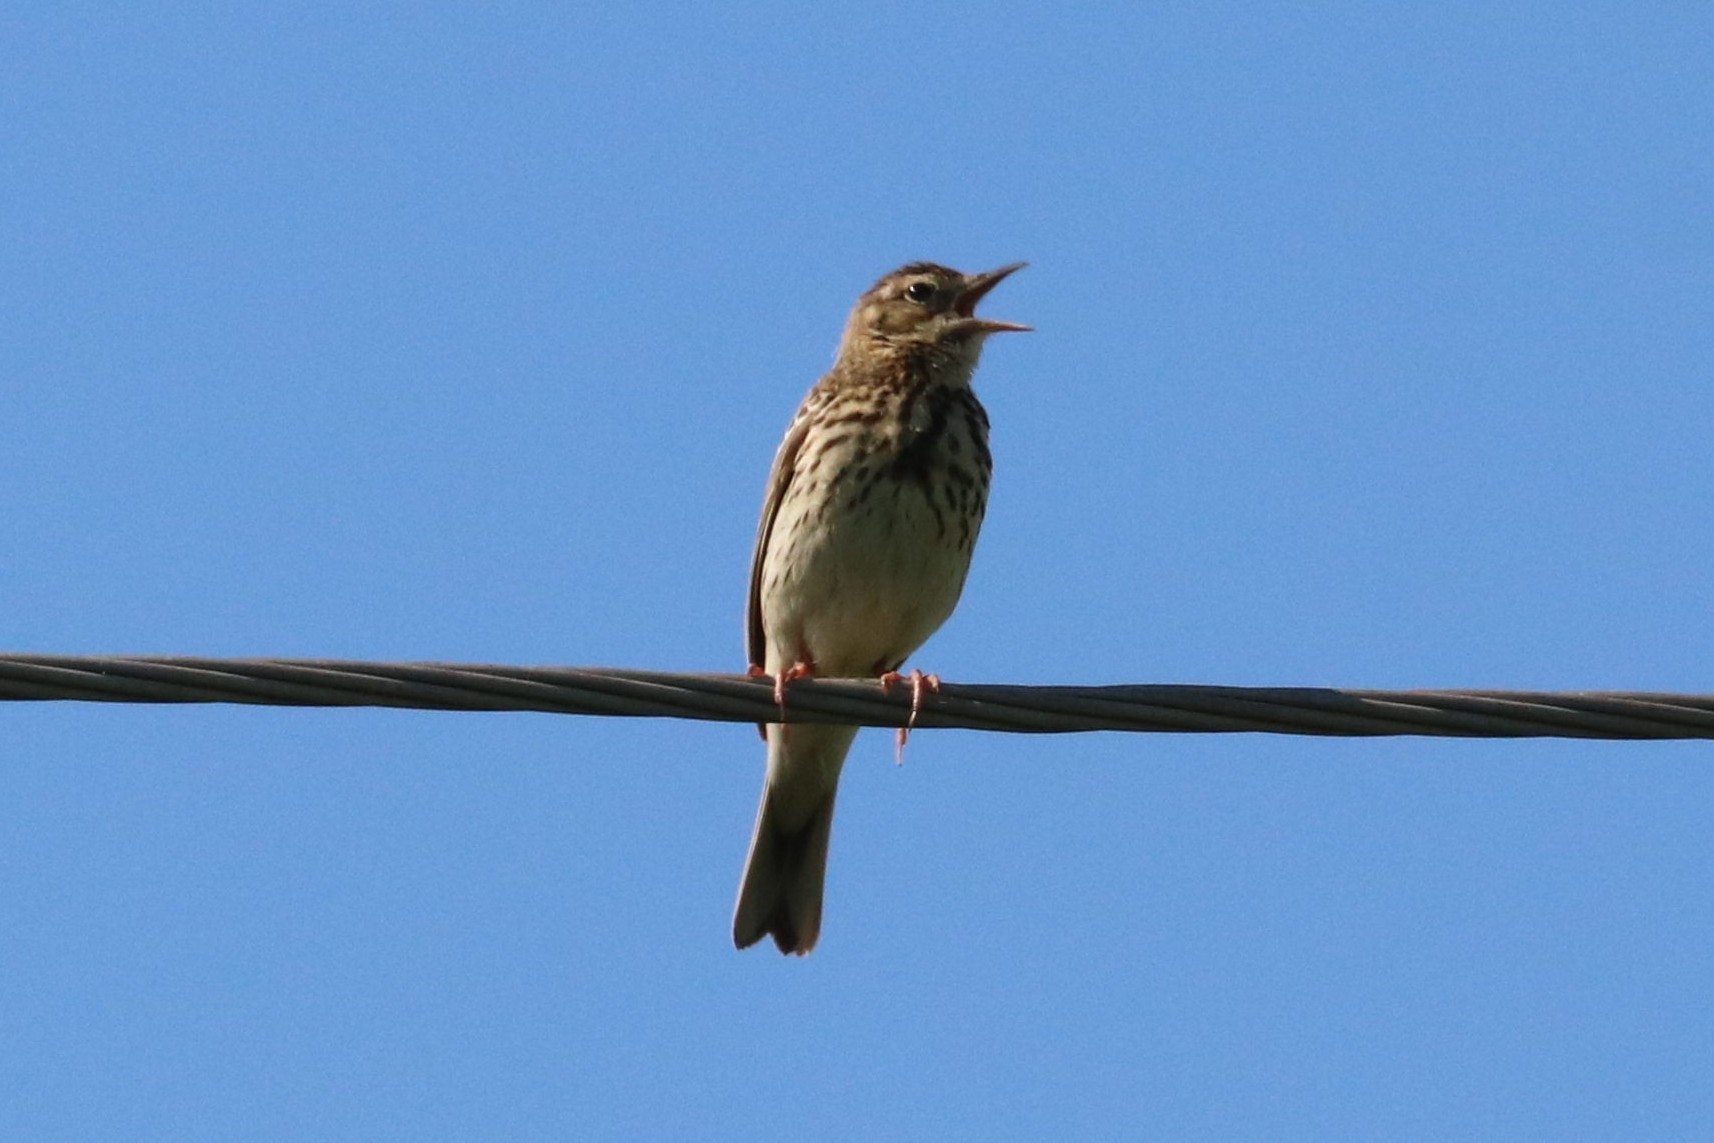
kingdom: Animalia
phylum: Chordata
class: Aves
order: Passeriformes
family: Motacillidae
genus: Anthus
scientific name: Anthus trivialis
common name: Tree pipit
